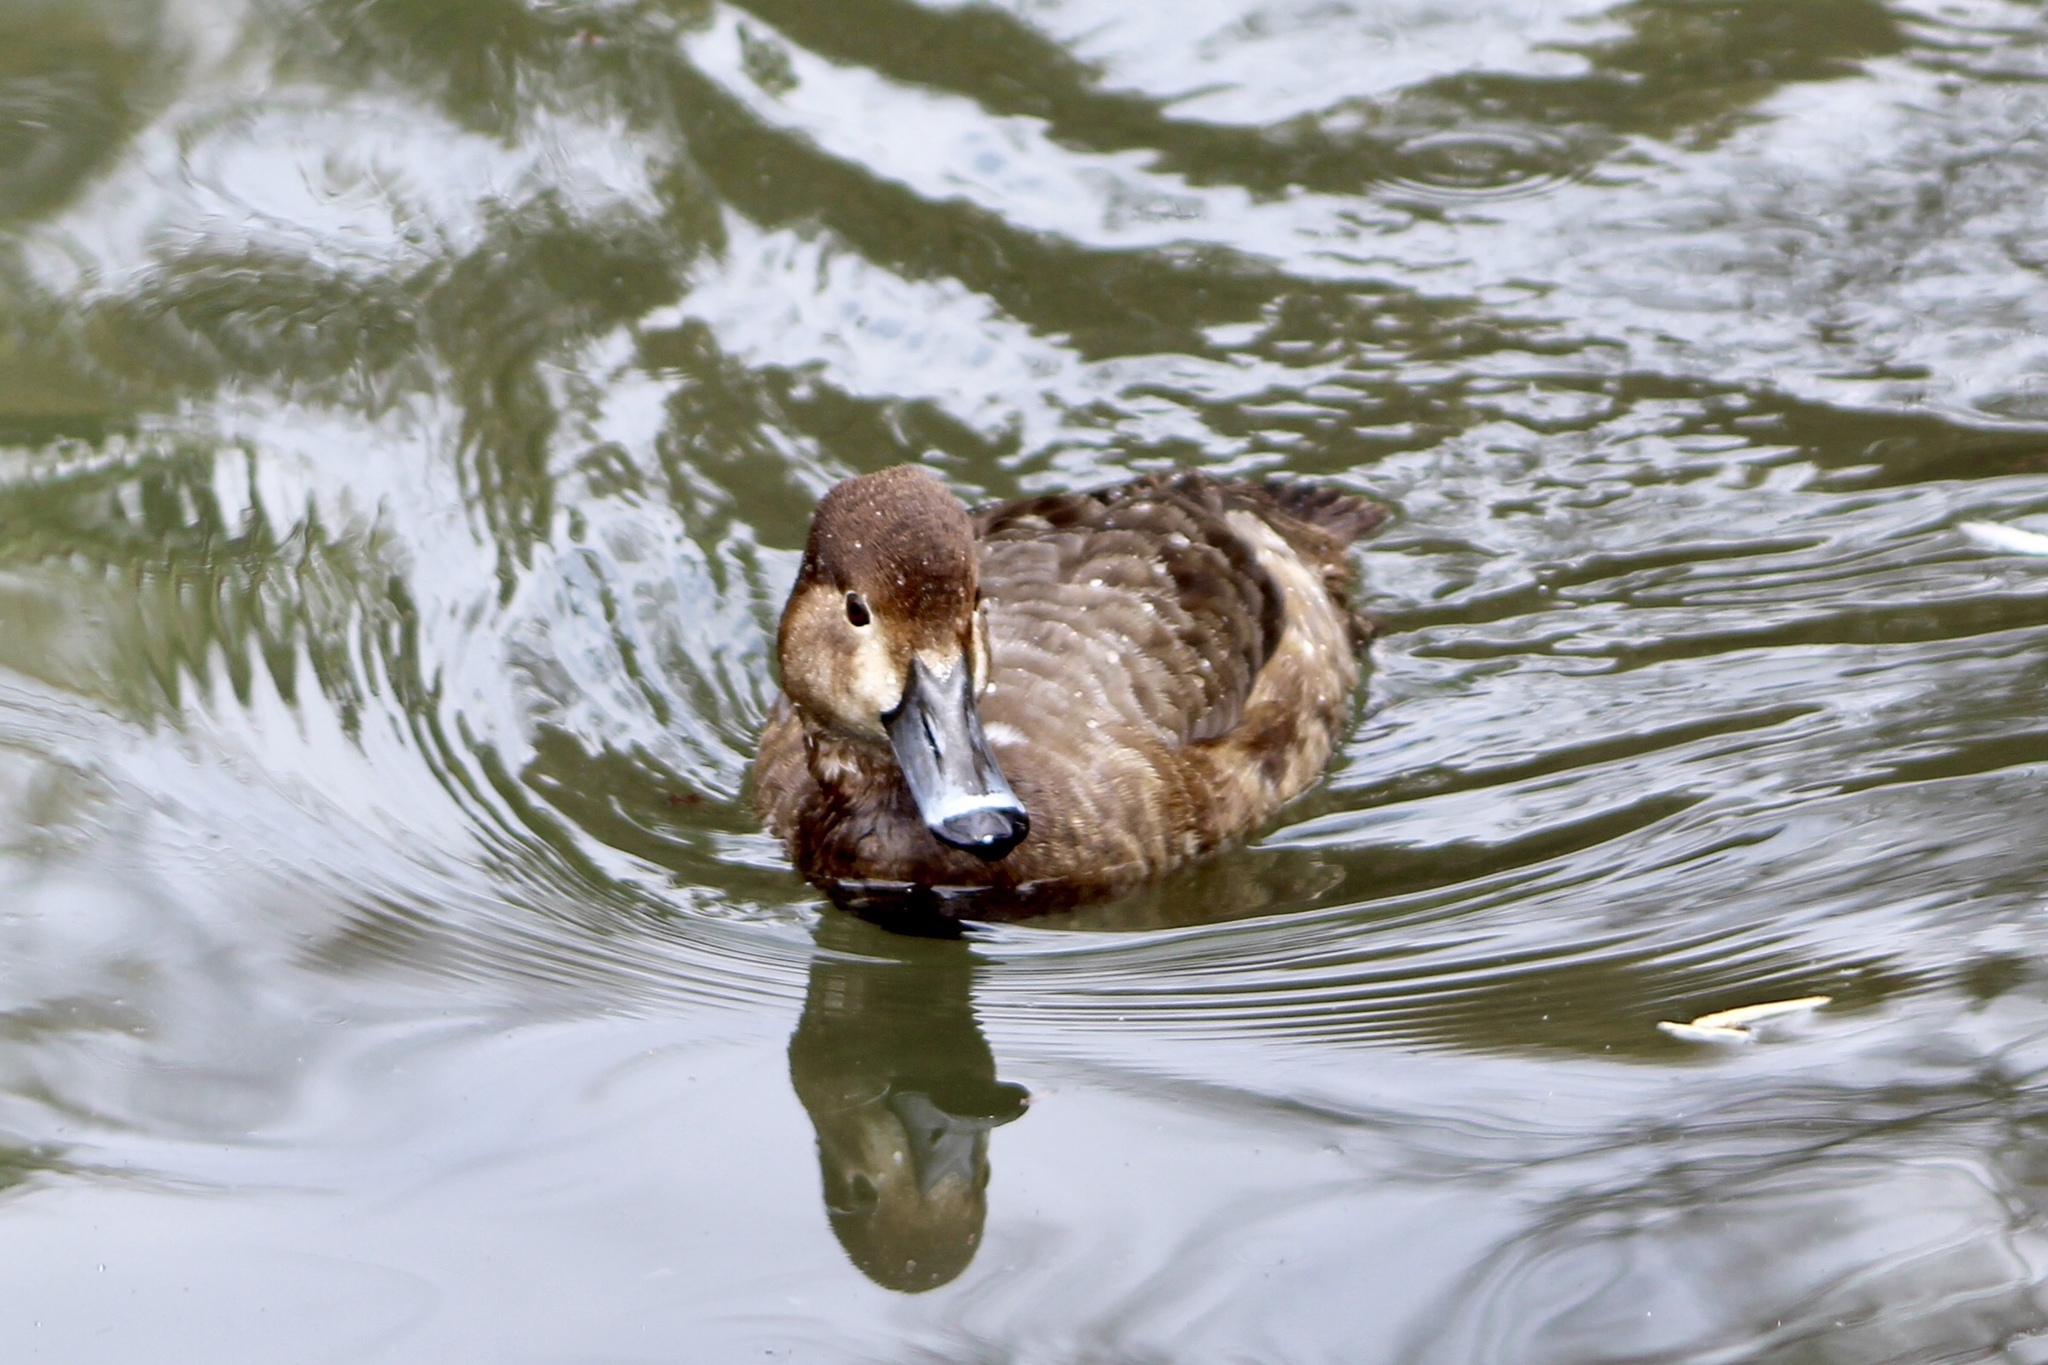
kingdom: Animalia
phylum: Chordata
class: Aves
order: Anseriformes
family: Anatidae
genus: Aythya
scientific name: Aythya americana
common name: Redhead
